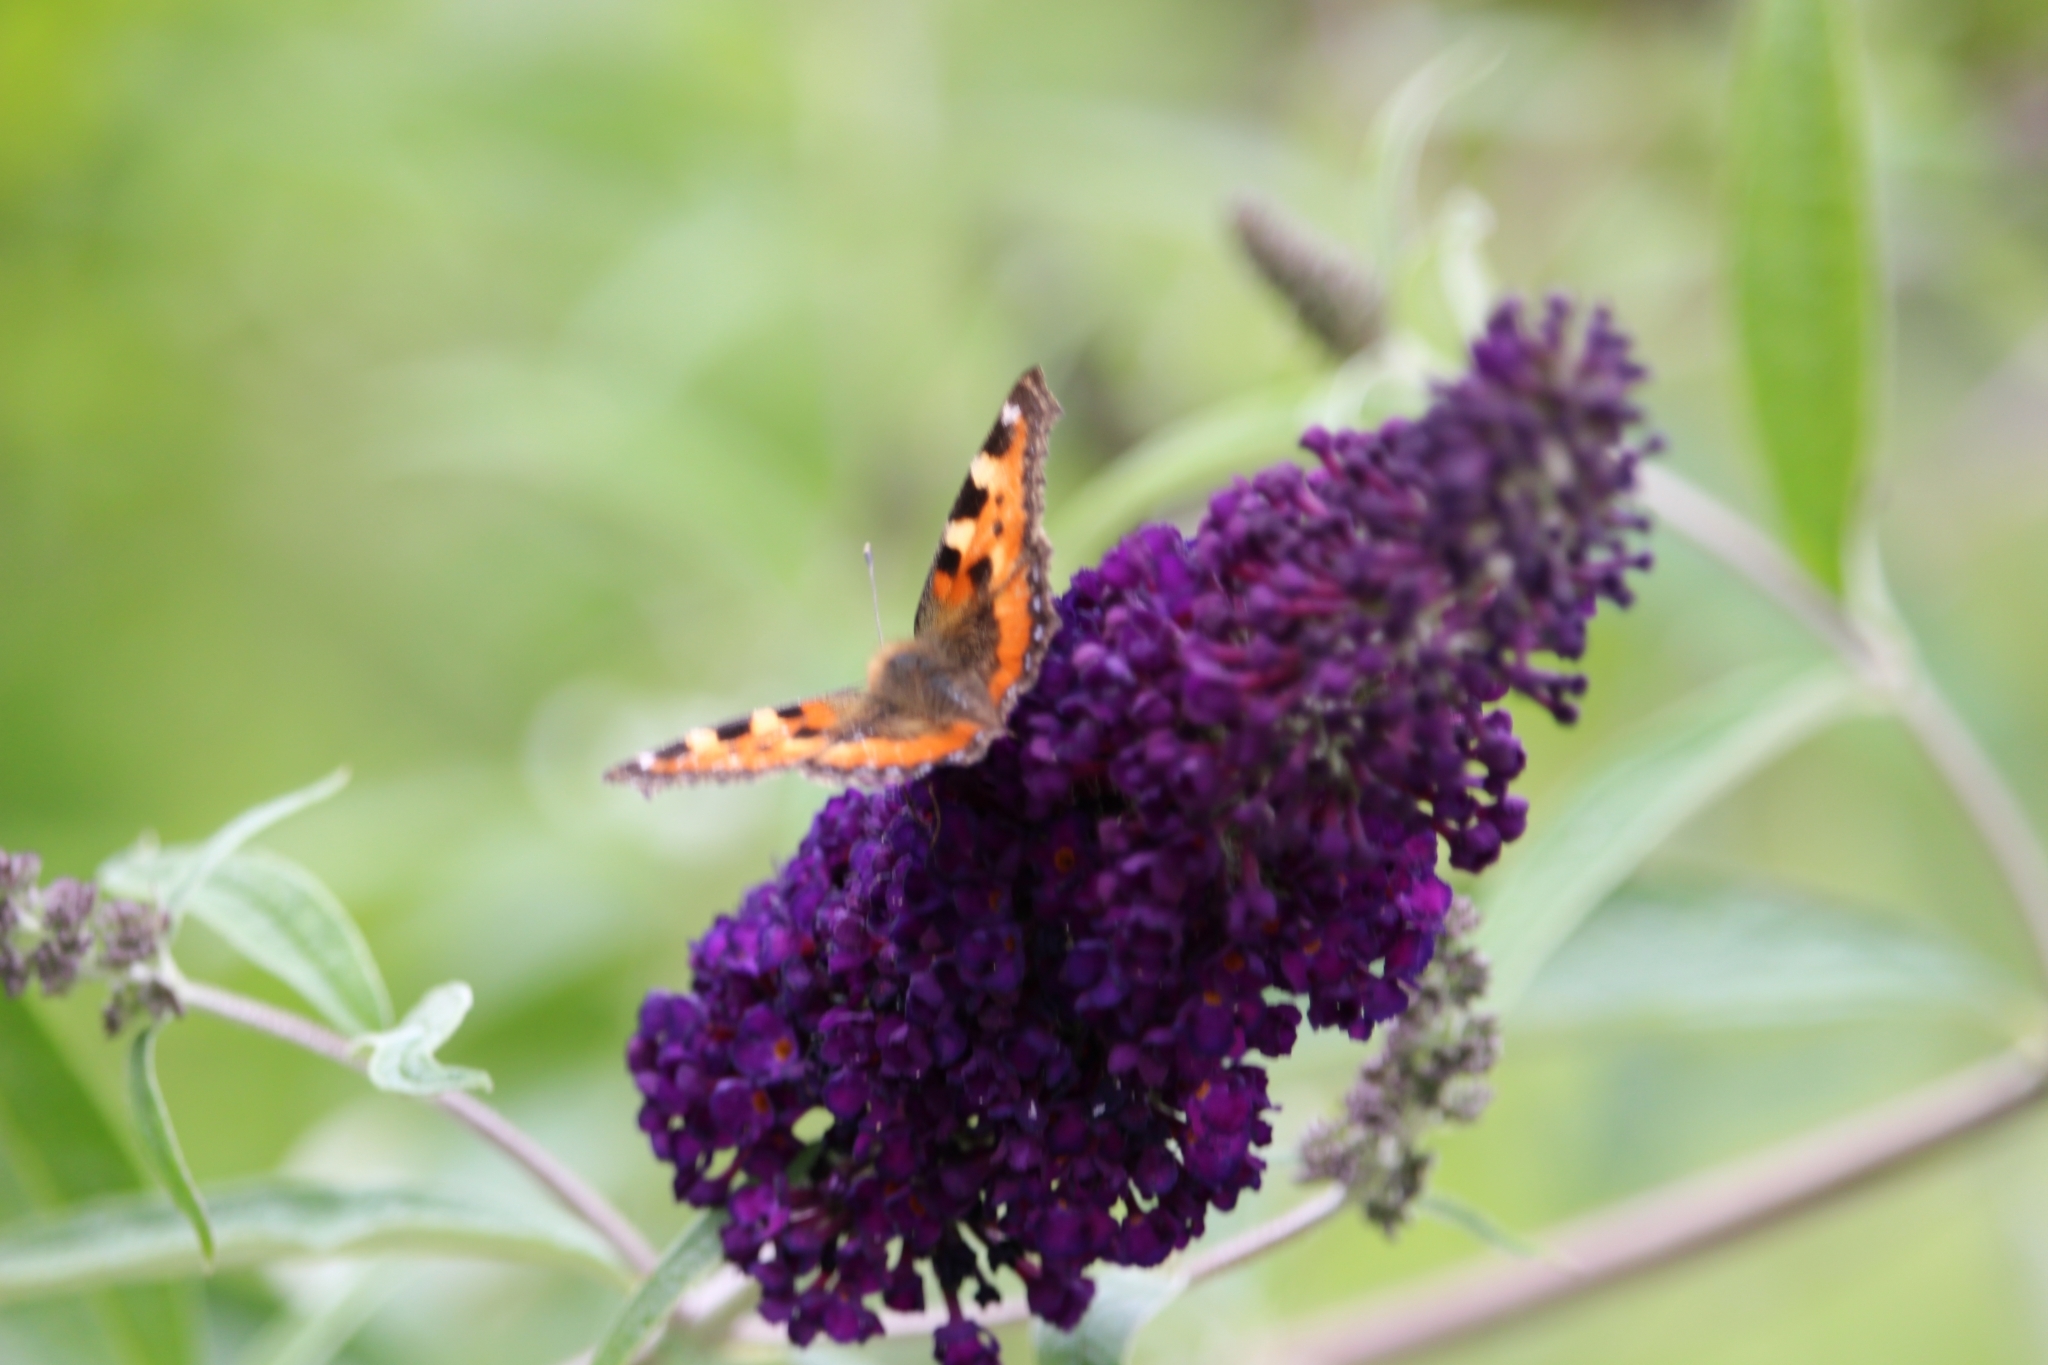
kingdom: Animalia
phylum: Arthropoda
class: Insecta
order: Lepidoptera
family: Nymphalidae
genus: Aglais
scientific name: Aglais urticae
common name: Small tortoiseshell
